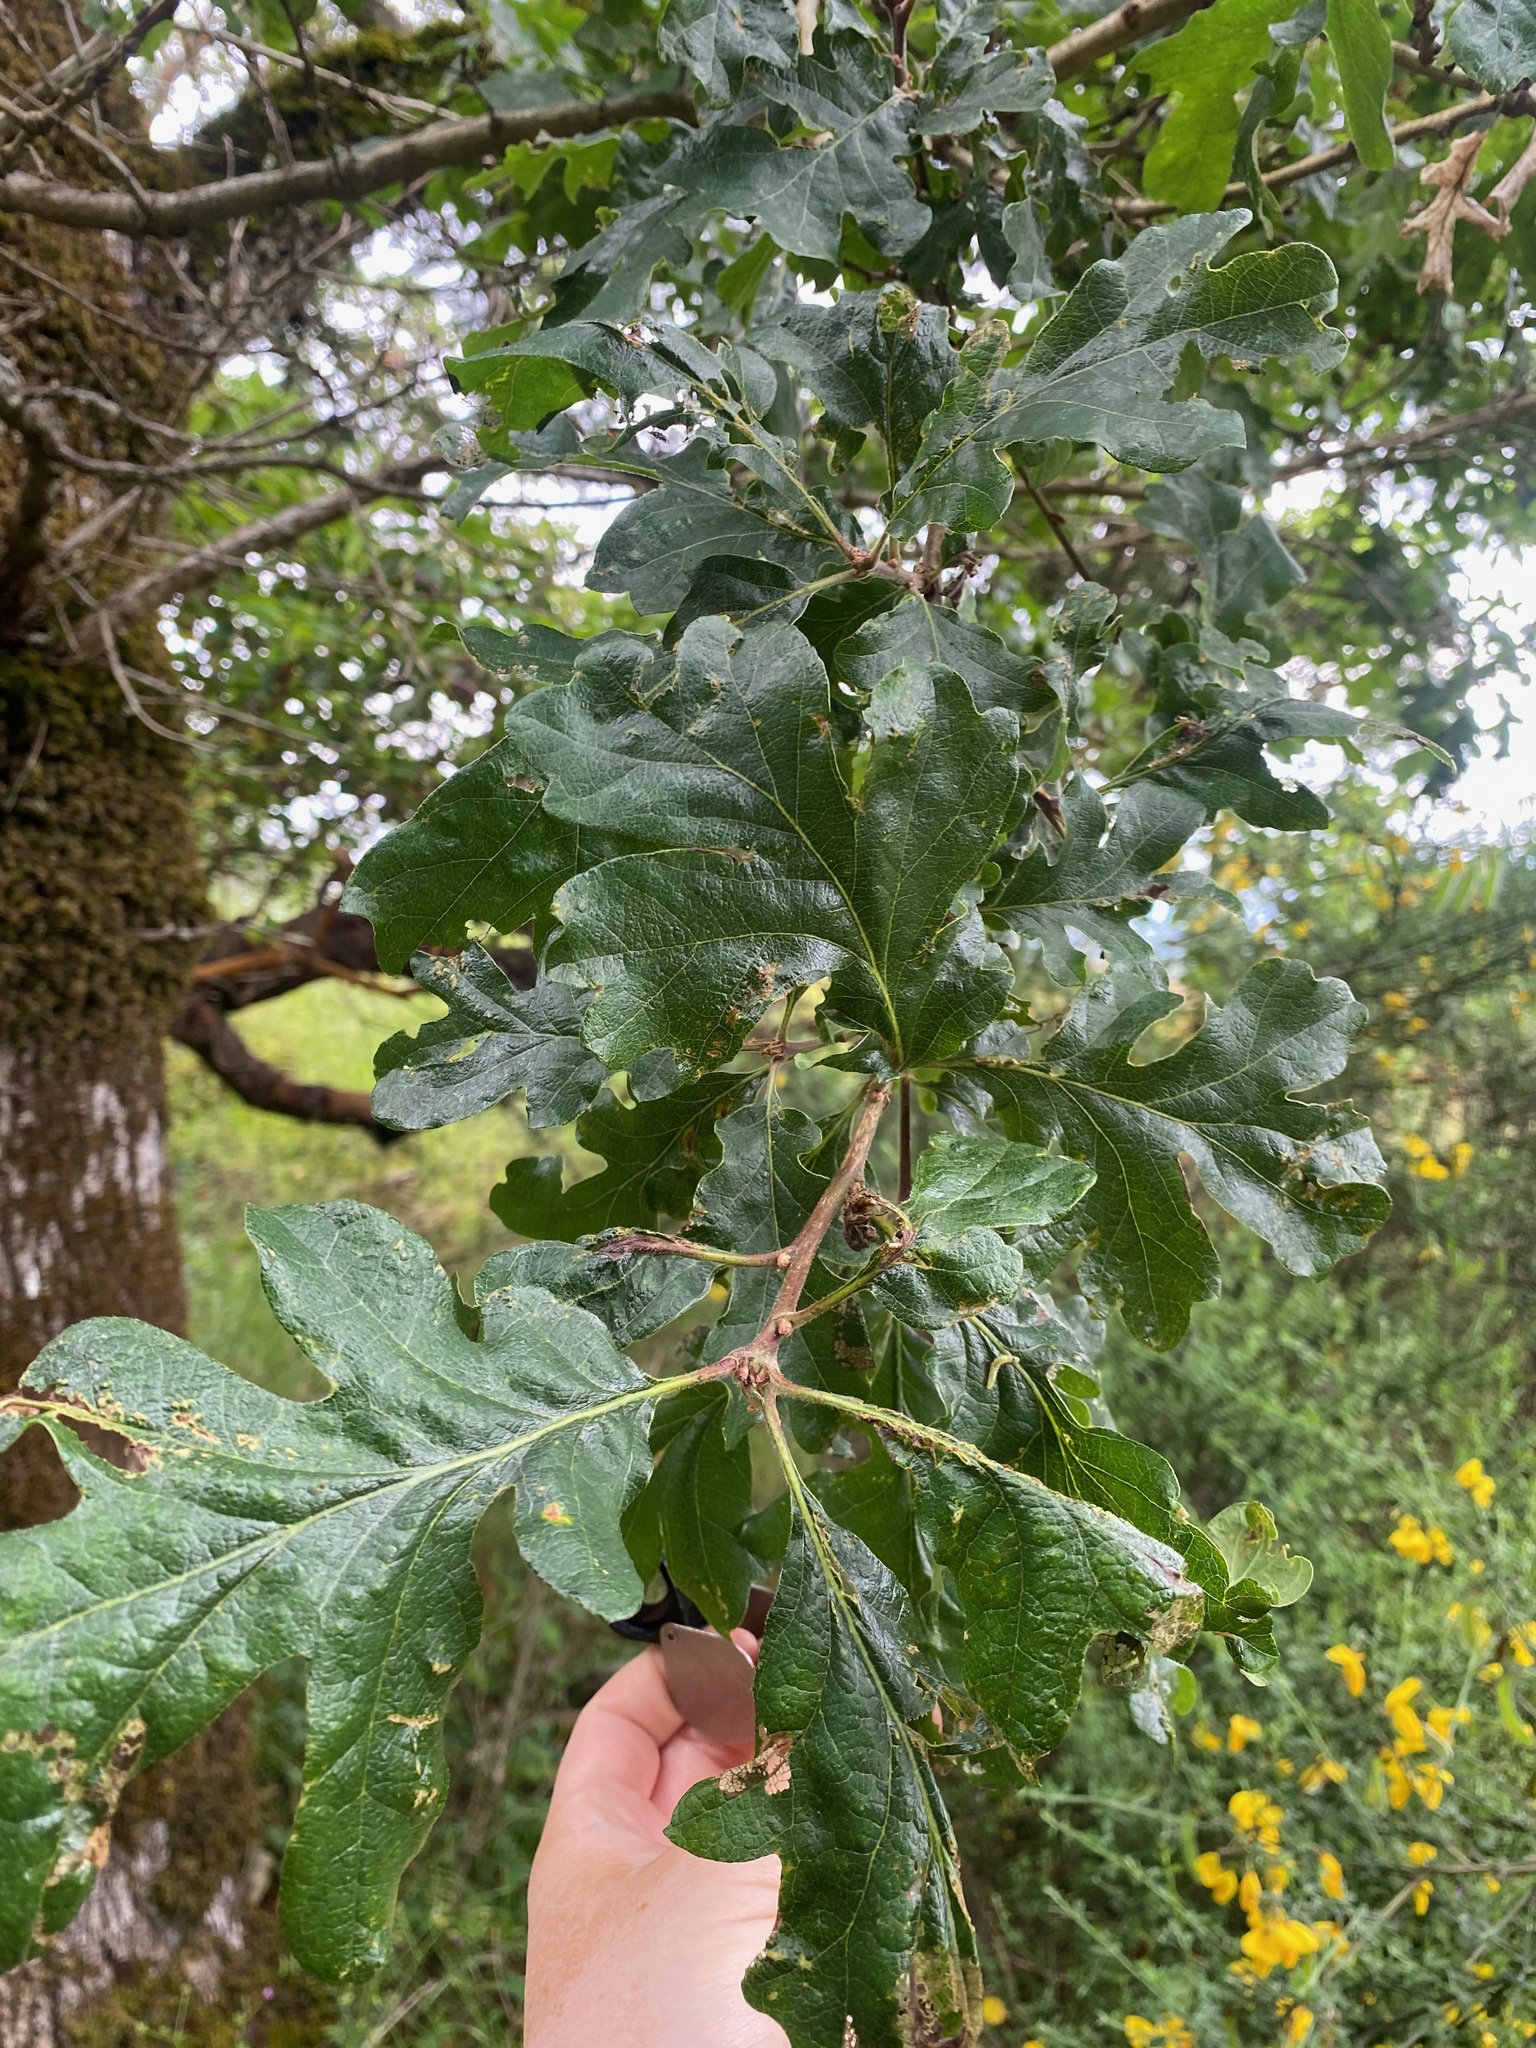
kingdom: Plantae
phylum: Tracheophyta
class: Magnoliopsida
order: Fagales
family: Fagaceae
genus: Quercus
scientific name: Quercus garryana
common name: Garry oak
